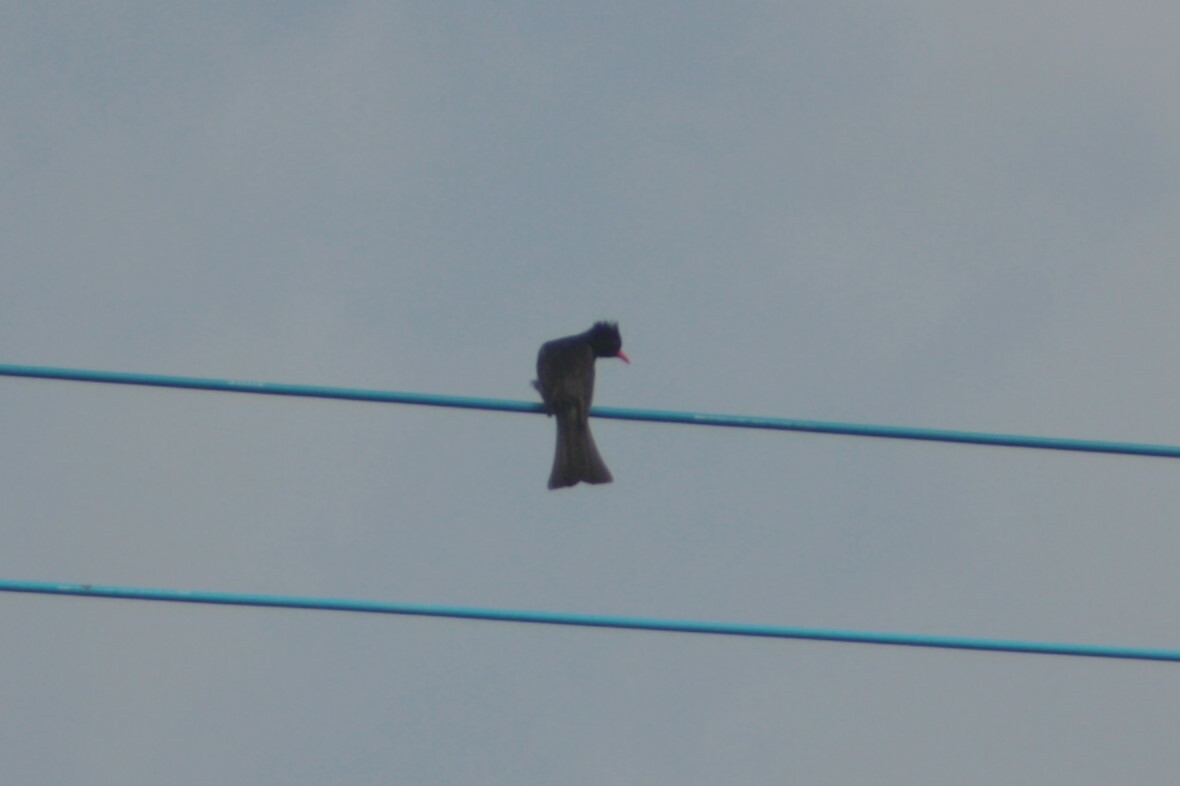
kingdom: Animalia
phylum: Chordata
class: Aves
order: Passeriformes
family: Pycnonotidae
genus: Hypsipetes
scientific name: Hypsipetes leucocephalus
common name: Black bulbul
